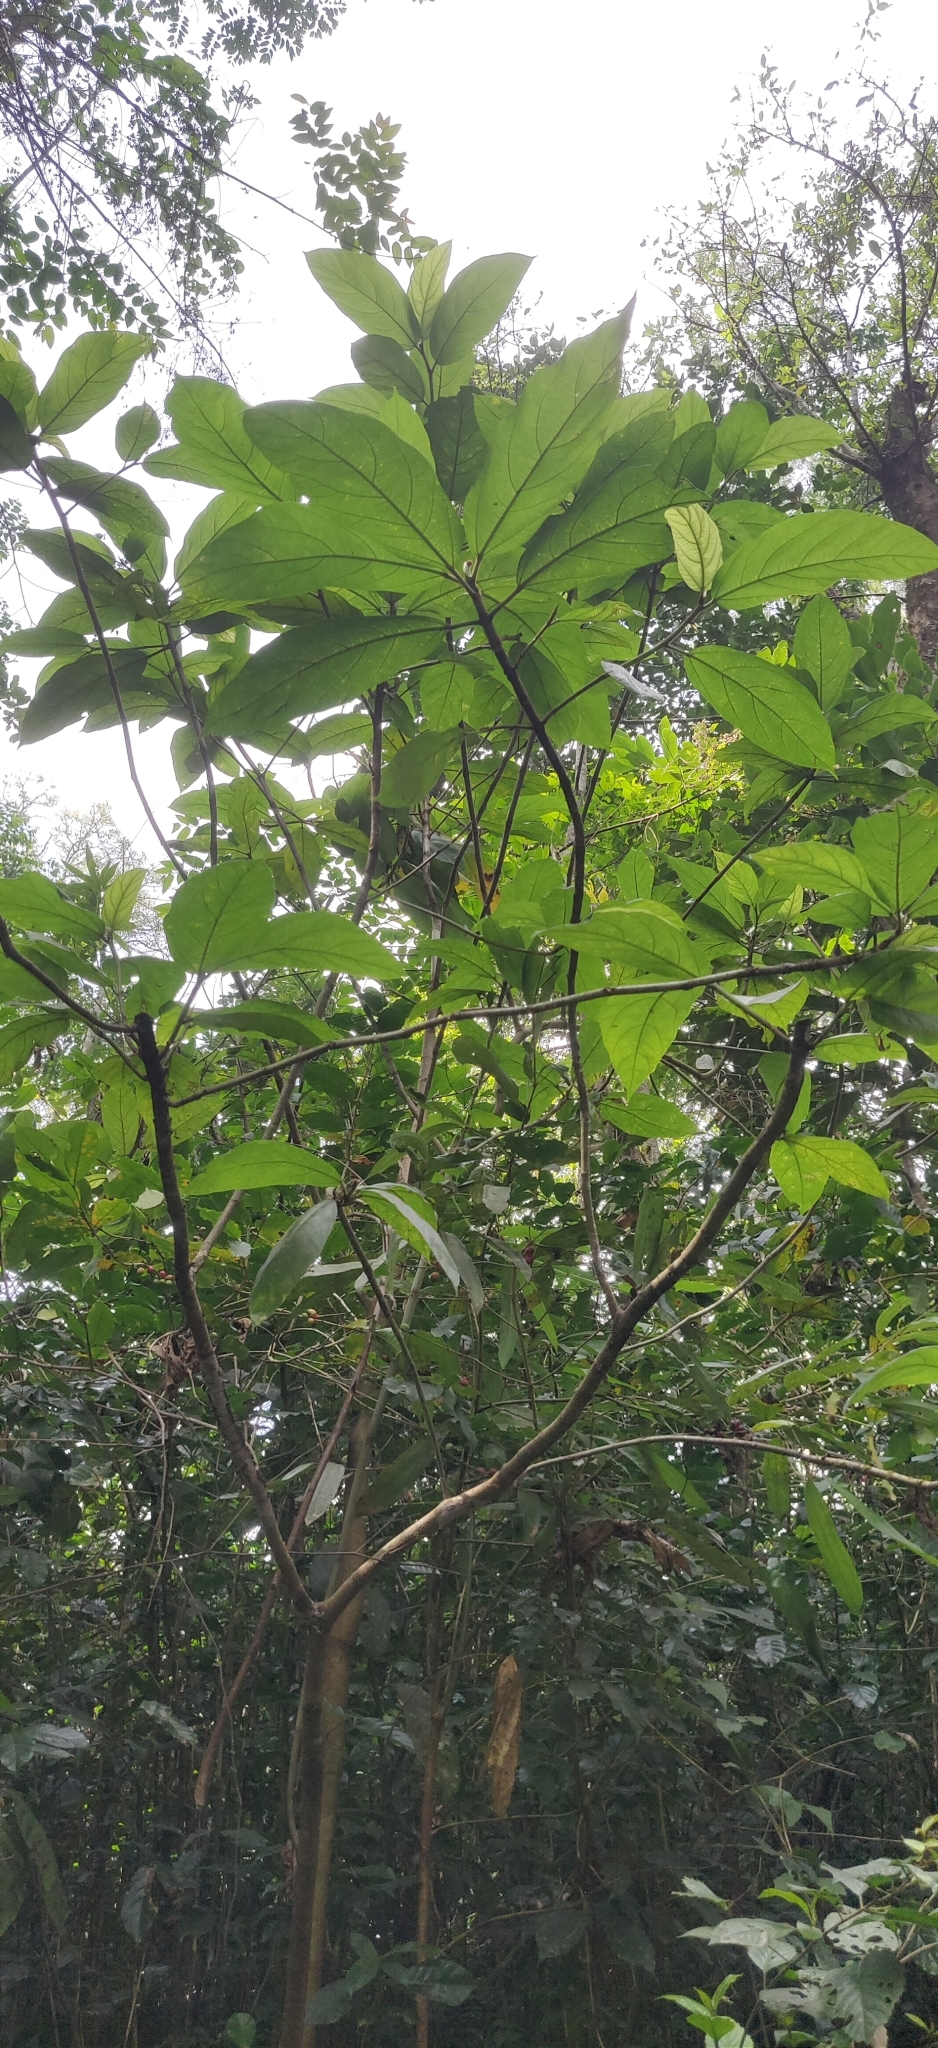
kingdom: Plantae
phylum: Tracheophyta
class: Magnoliopsida
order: Rosales
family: Moraceae
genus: Ficus
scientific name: Ficus hispida
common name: Hairy fig
